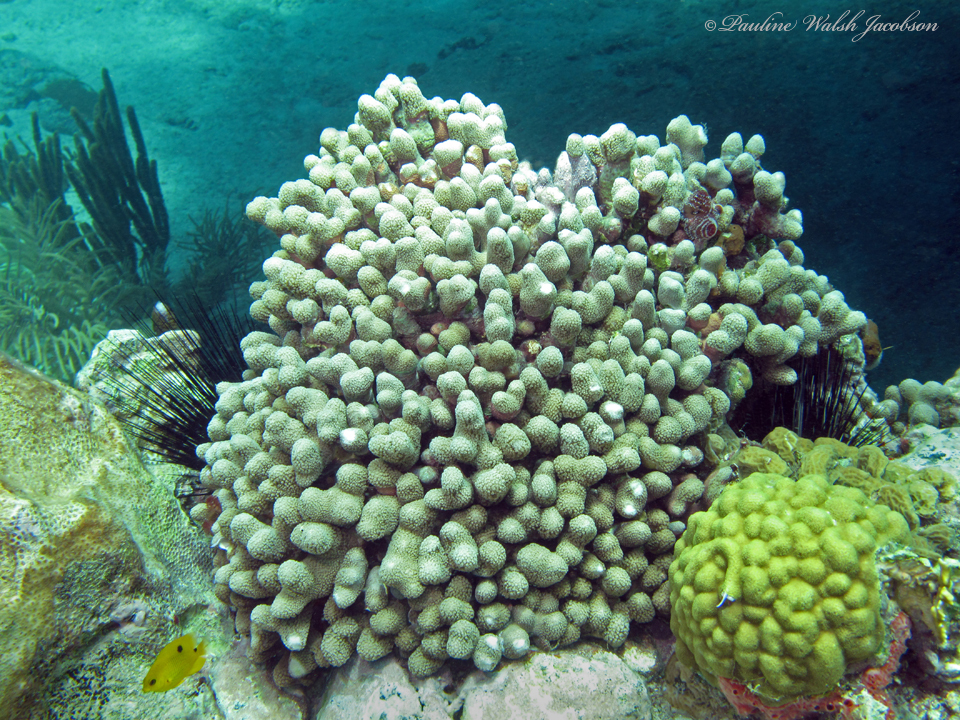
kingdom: Animalia
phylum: Cnidaria
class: Anthozoa
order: Scleractinia
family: Poritidae
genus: Porites
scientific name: Porites astreoides
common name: Mustard hill coral
